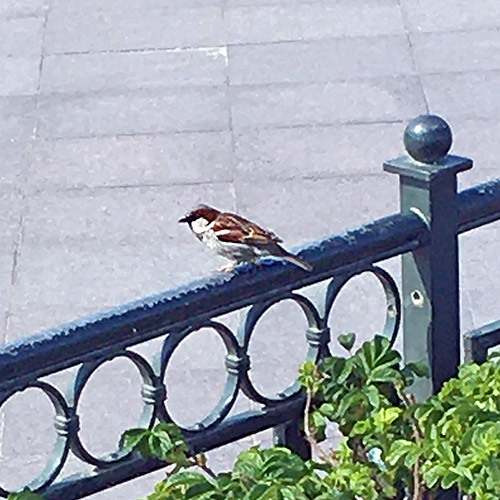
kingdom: Animalia
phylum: Chordata
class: Aves
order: Passeriformes
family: Passeridae
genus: Passer
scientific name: Passer domesticus
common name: House sparrow
